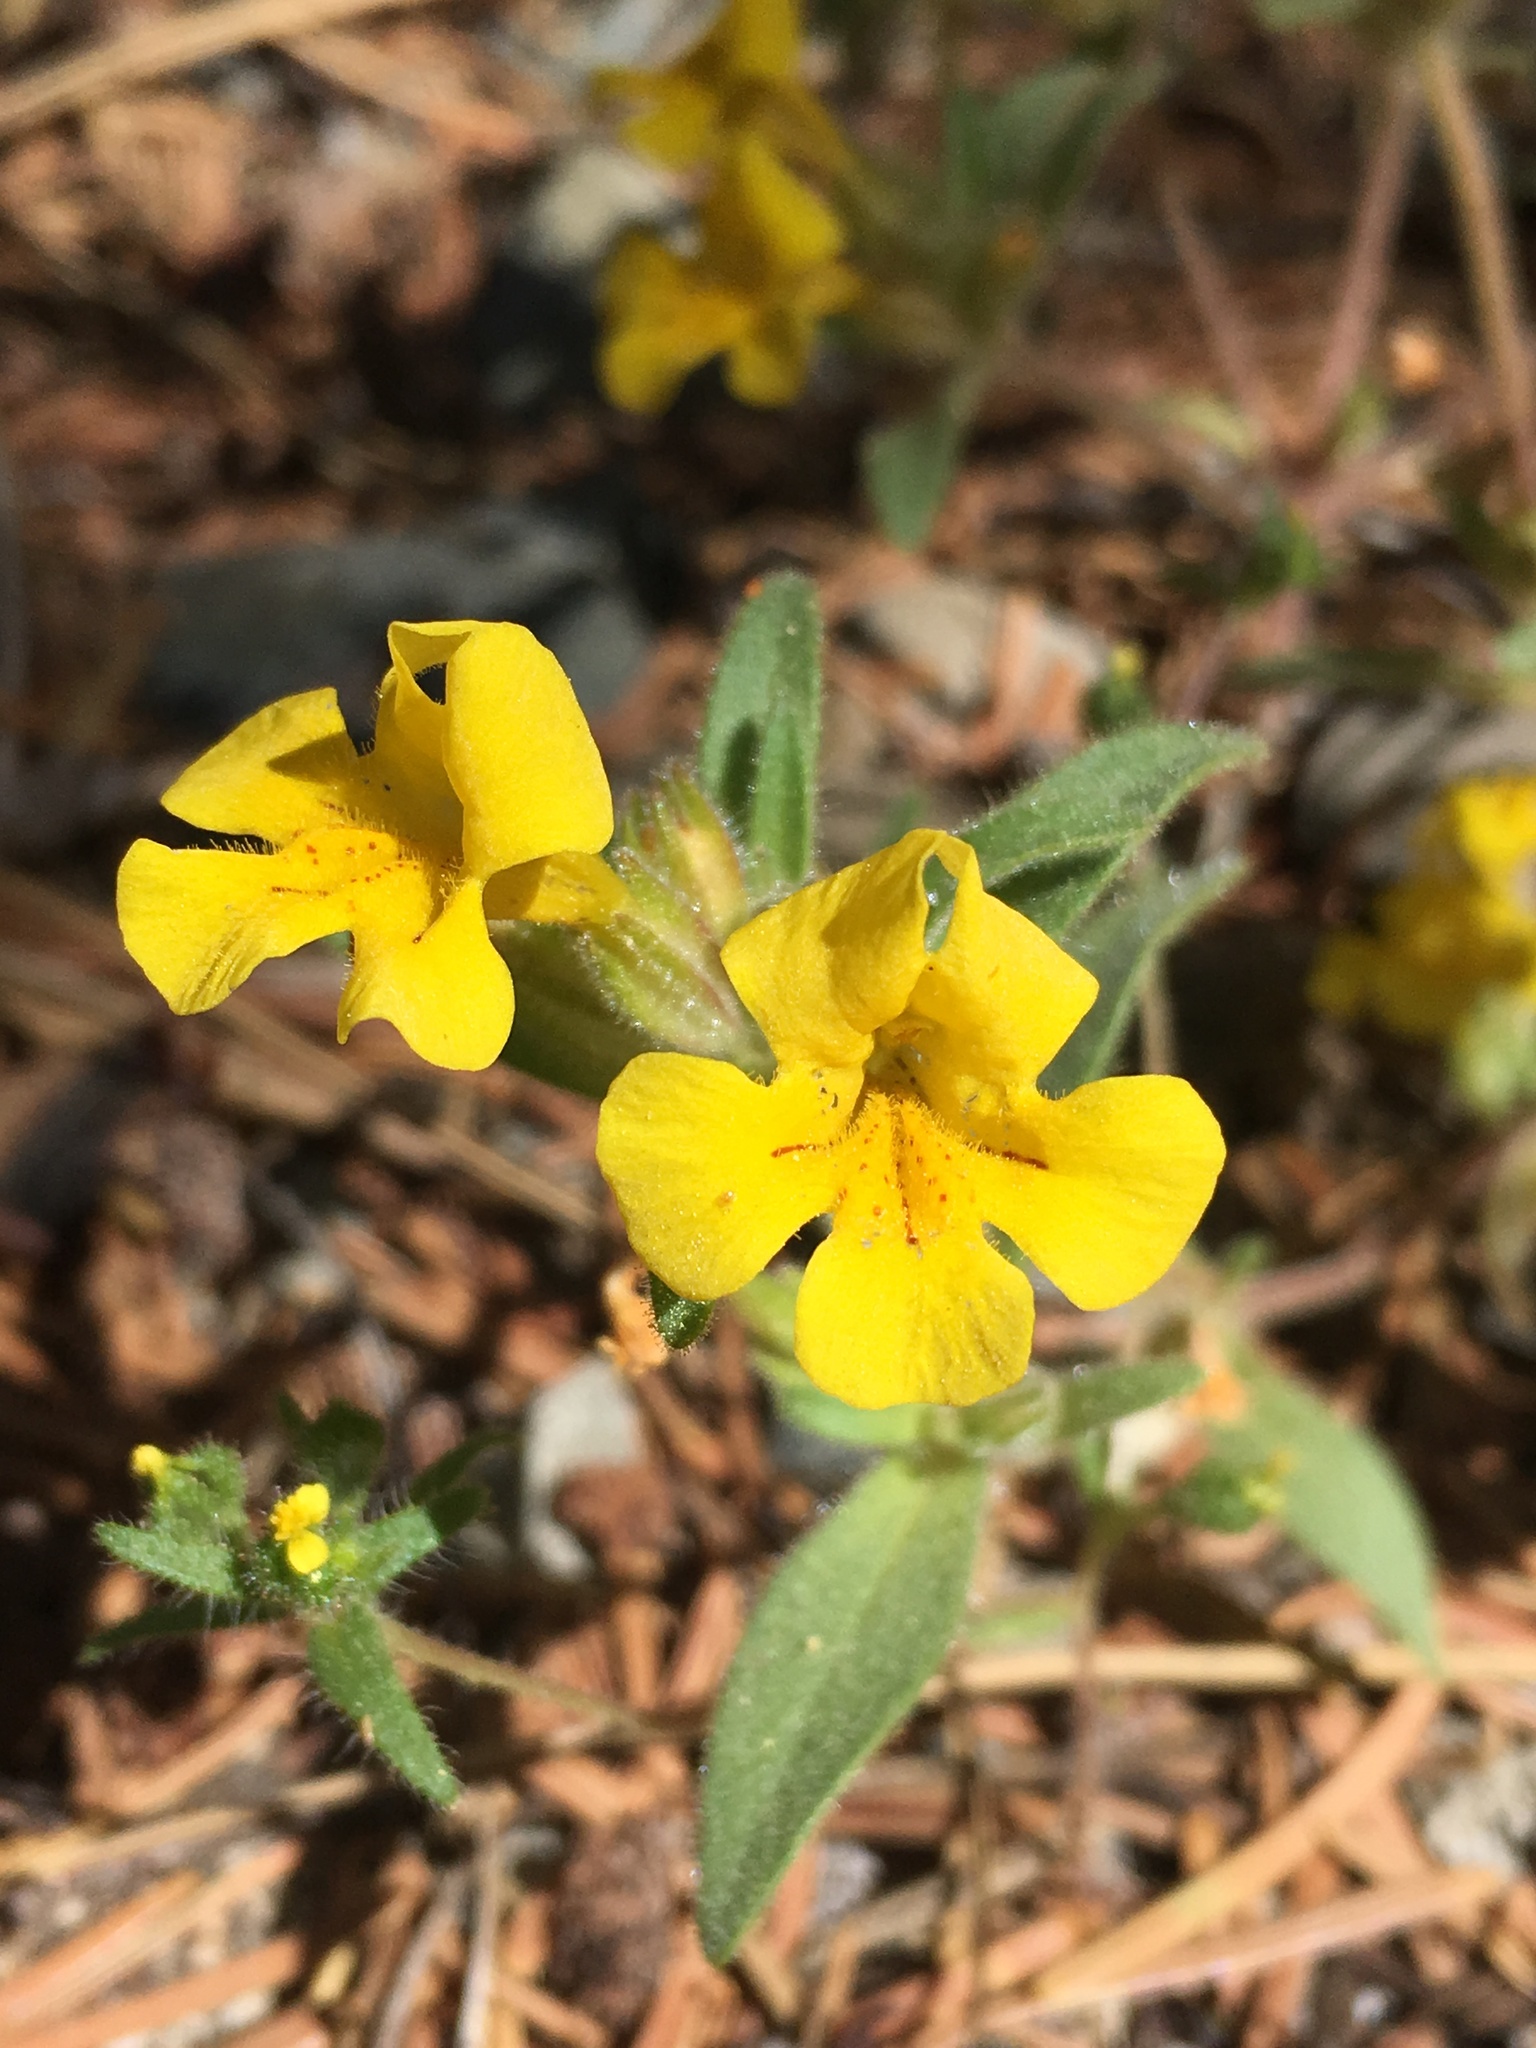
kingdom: Plantae
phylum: Tracheophyta
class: Magnoliopsida
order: Lamiales
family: Phrymaceae
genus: Diplacus
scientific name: Diplacus mephiticus
